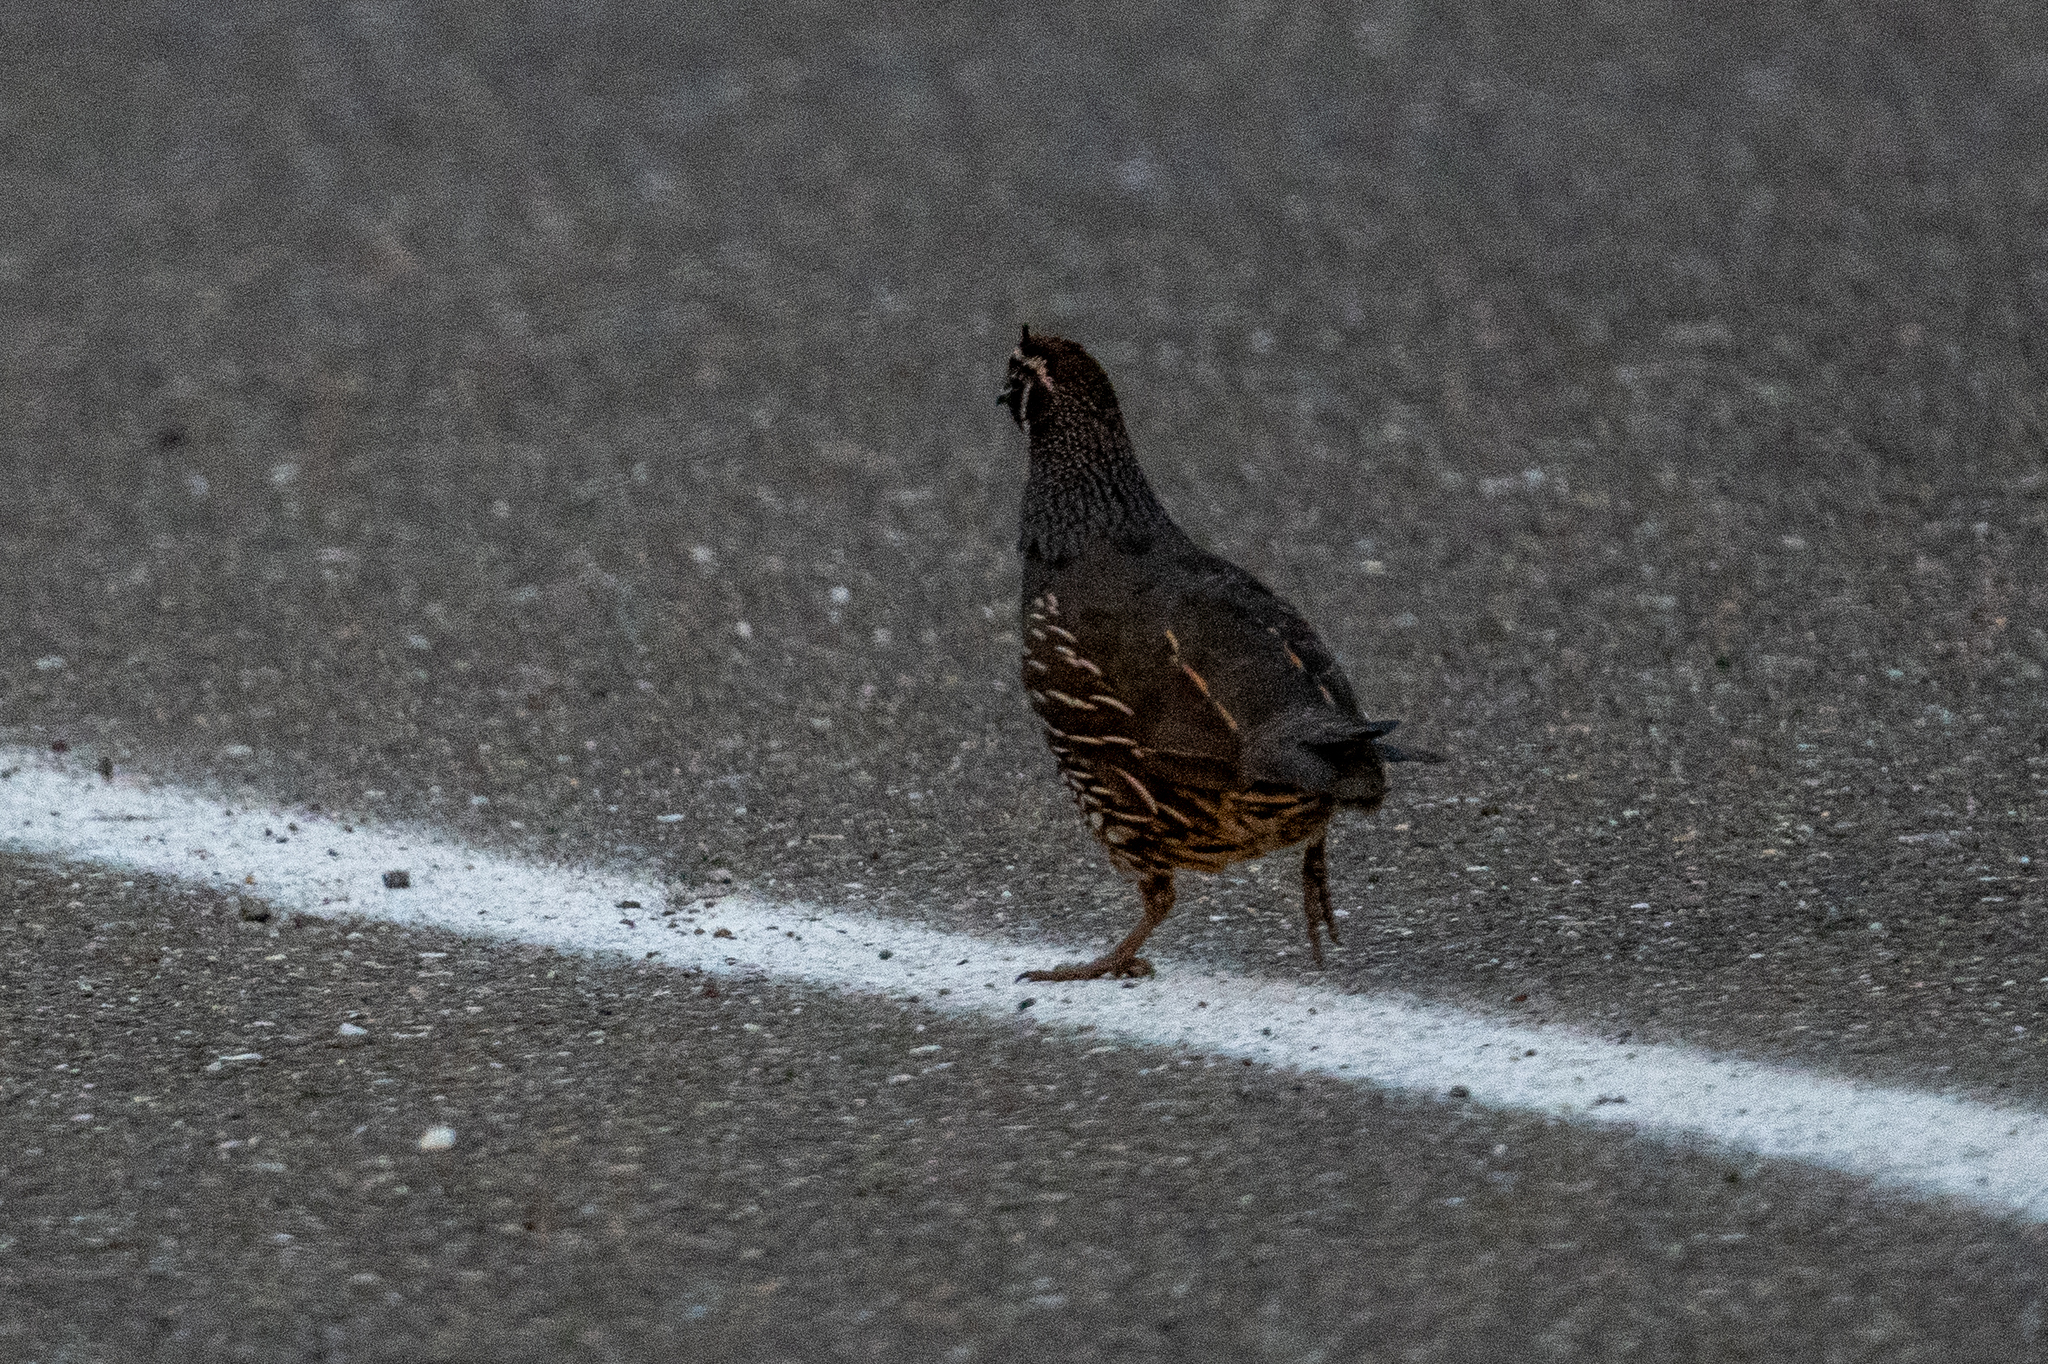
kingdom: Animalia
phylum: Chordata
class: Aves
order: Galliformes
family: Odontophoridae
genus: Callipepla
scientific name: Callipepla californica
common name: California quail
